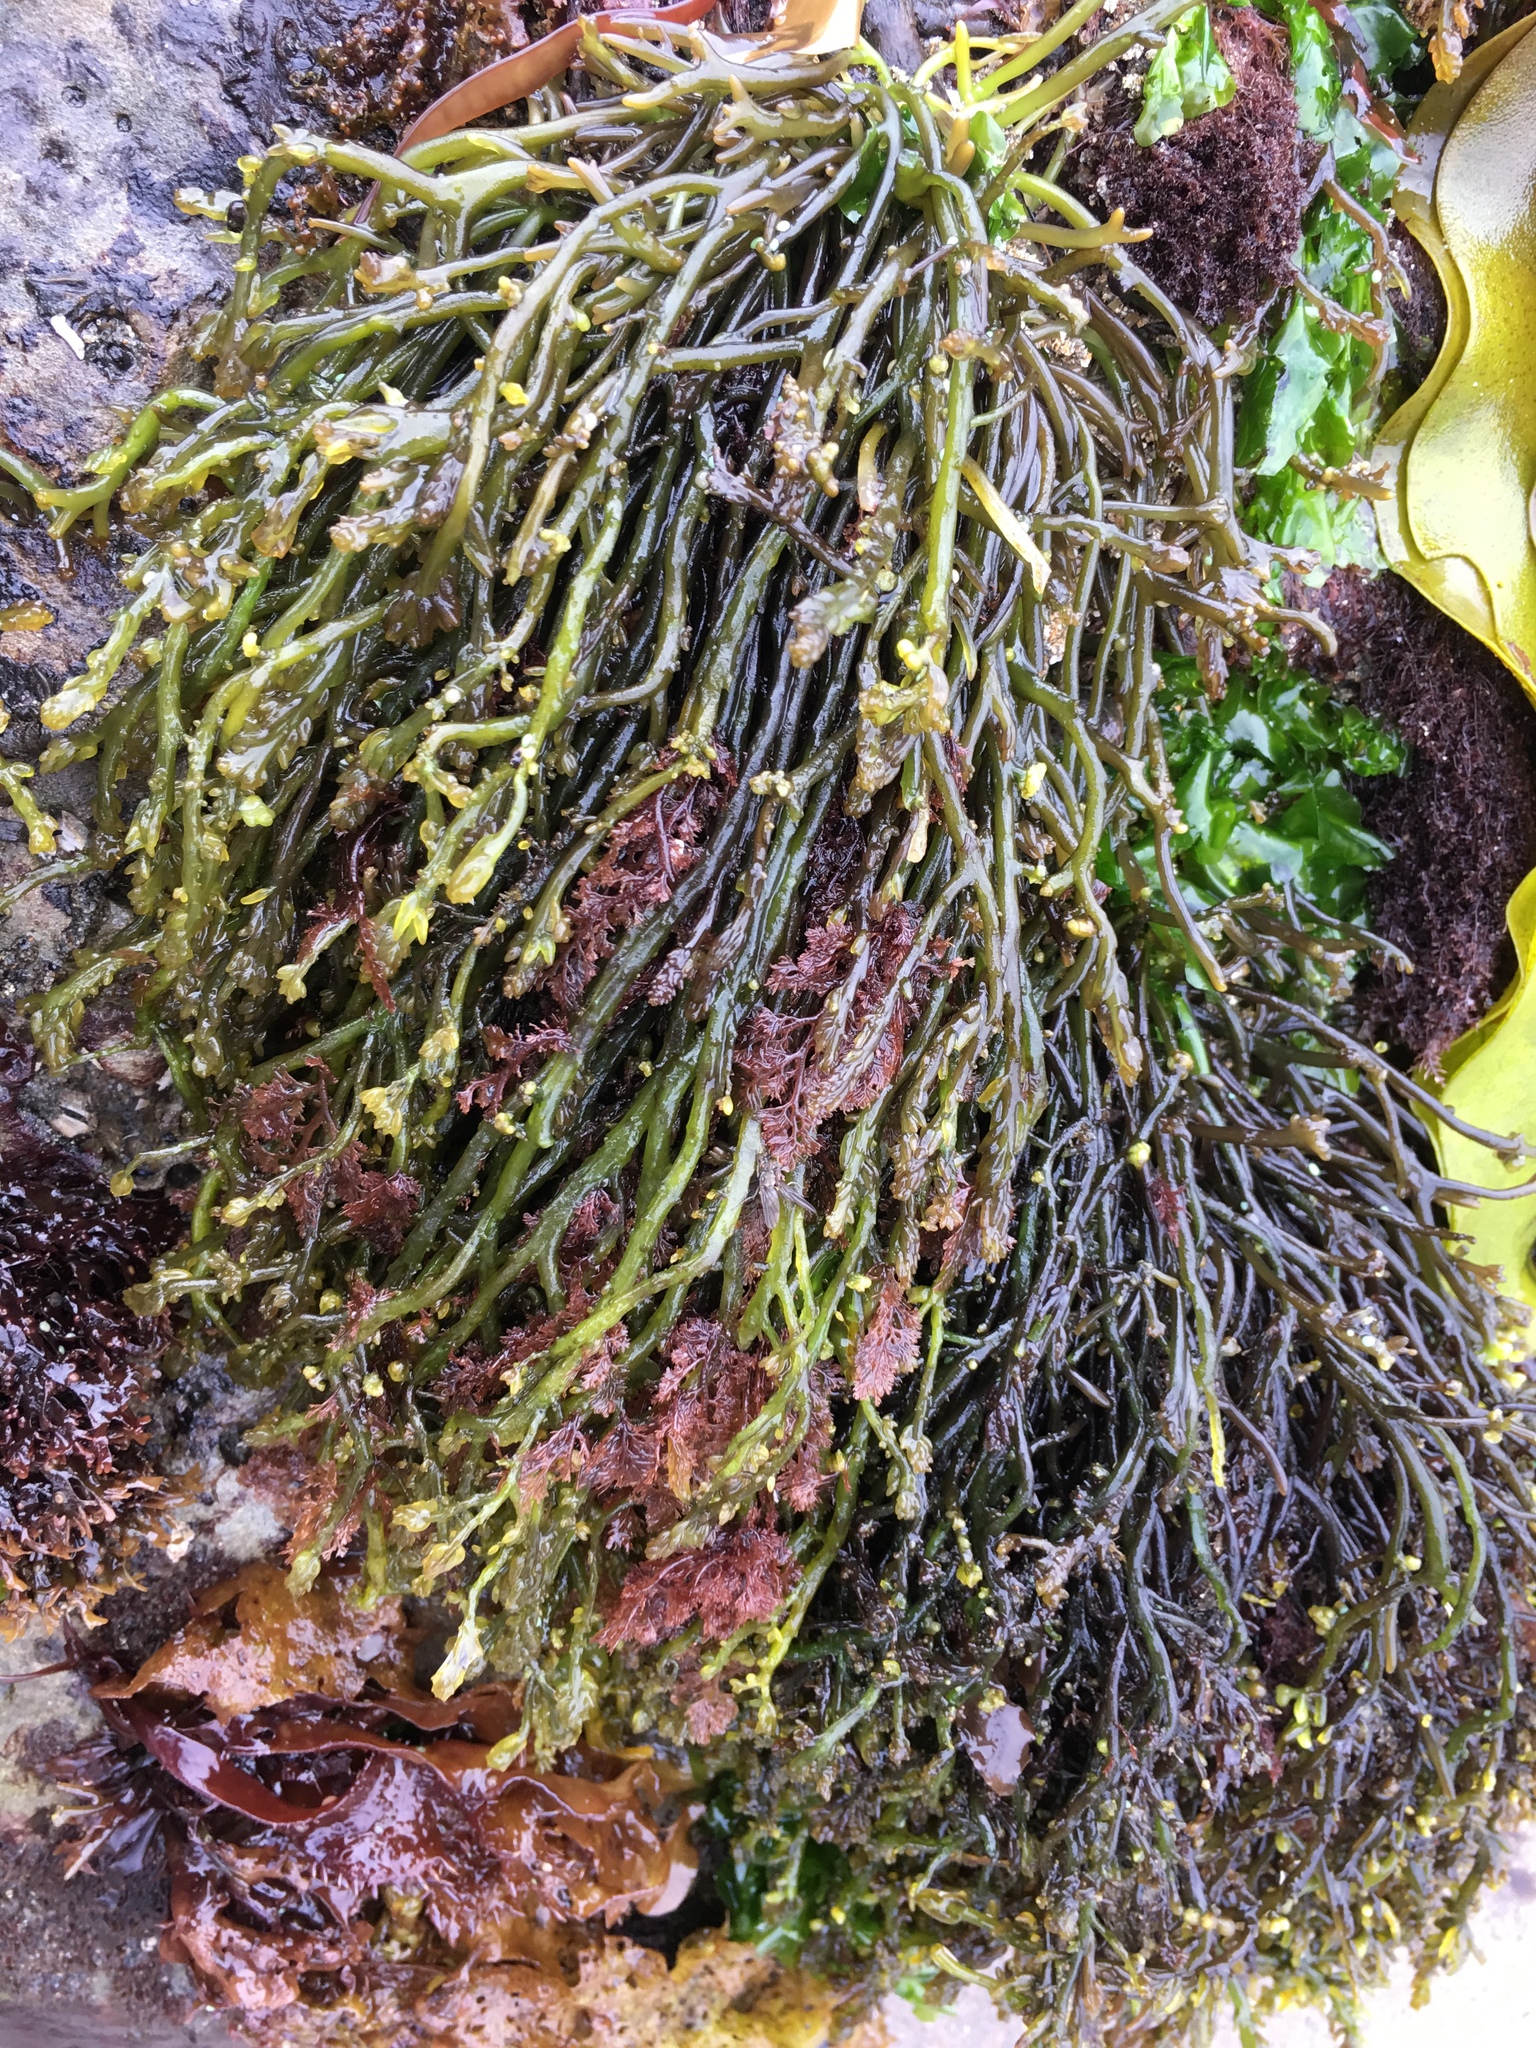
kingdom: Plantae
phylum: Rhodophyta
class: Florideophyceae
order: Rhodymeniales
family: Champiaceae
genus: Neogastroclonium
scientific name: Neogastroclonium subarticulatum
